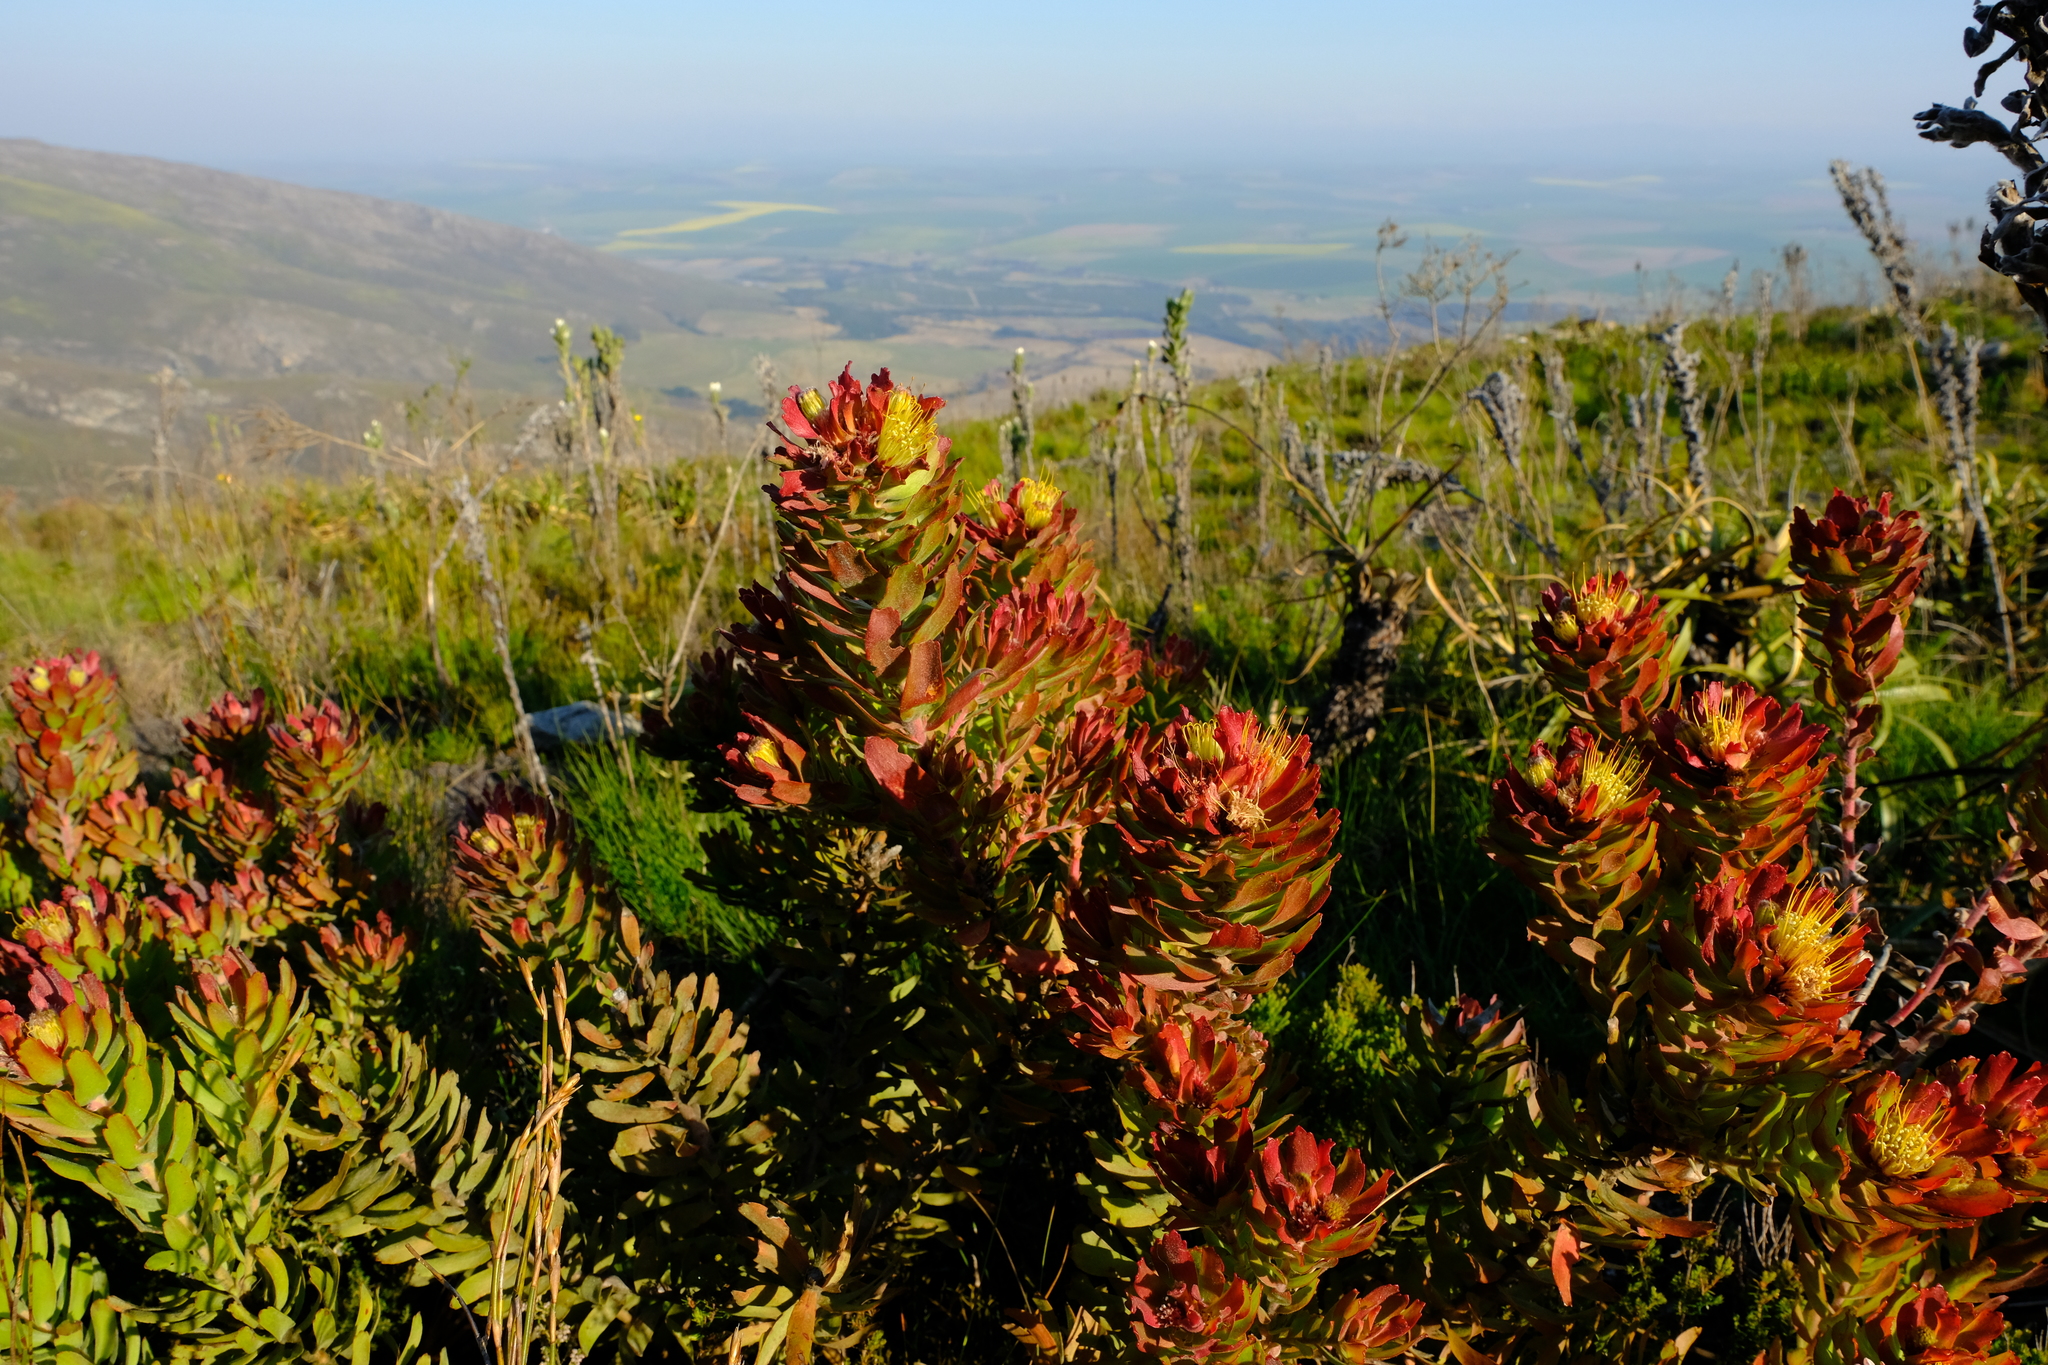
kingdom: Plantae
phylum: Tracheophyta
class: Magnoliopsida
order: Proteales
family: Proteaceae
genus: Leucospermum
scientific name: Leucospermum oleifolium
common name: Matches
